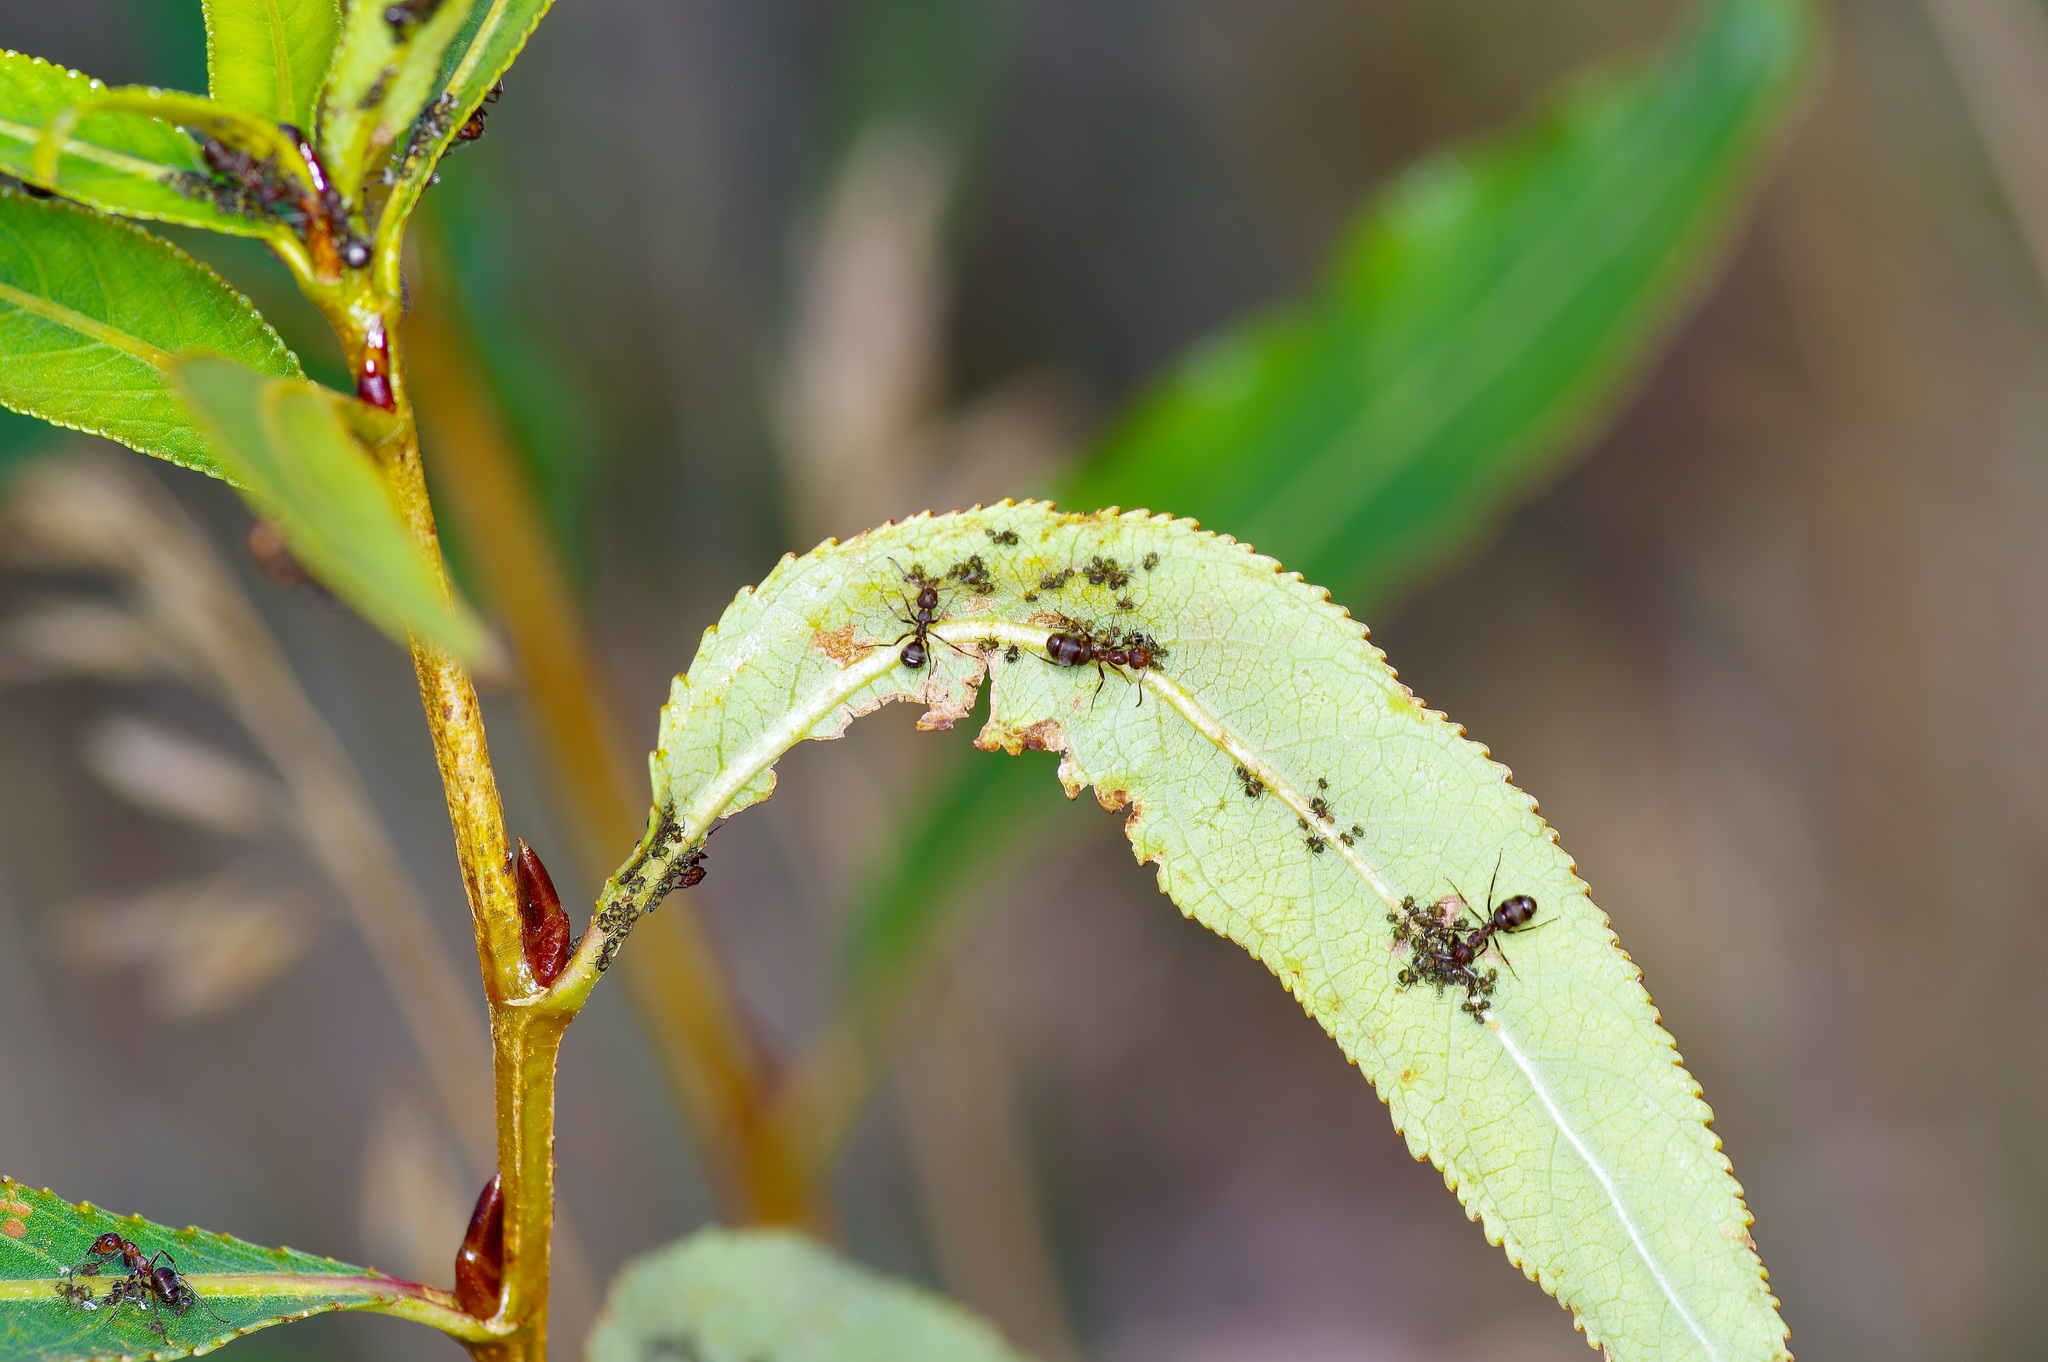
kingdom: Animalia
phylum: Arthropoda
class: Insecta
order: Hymenoptera
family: Formicidae
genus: Formica
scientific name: Formica
